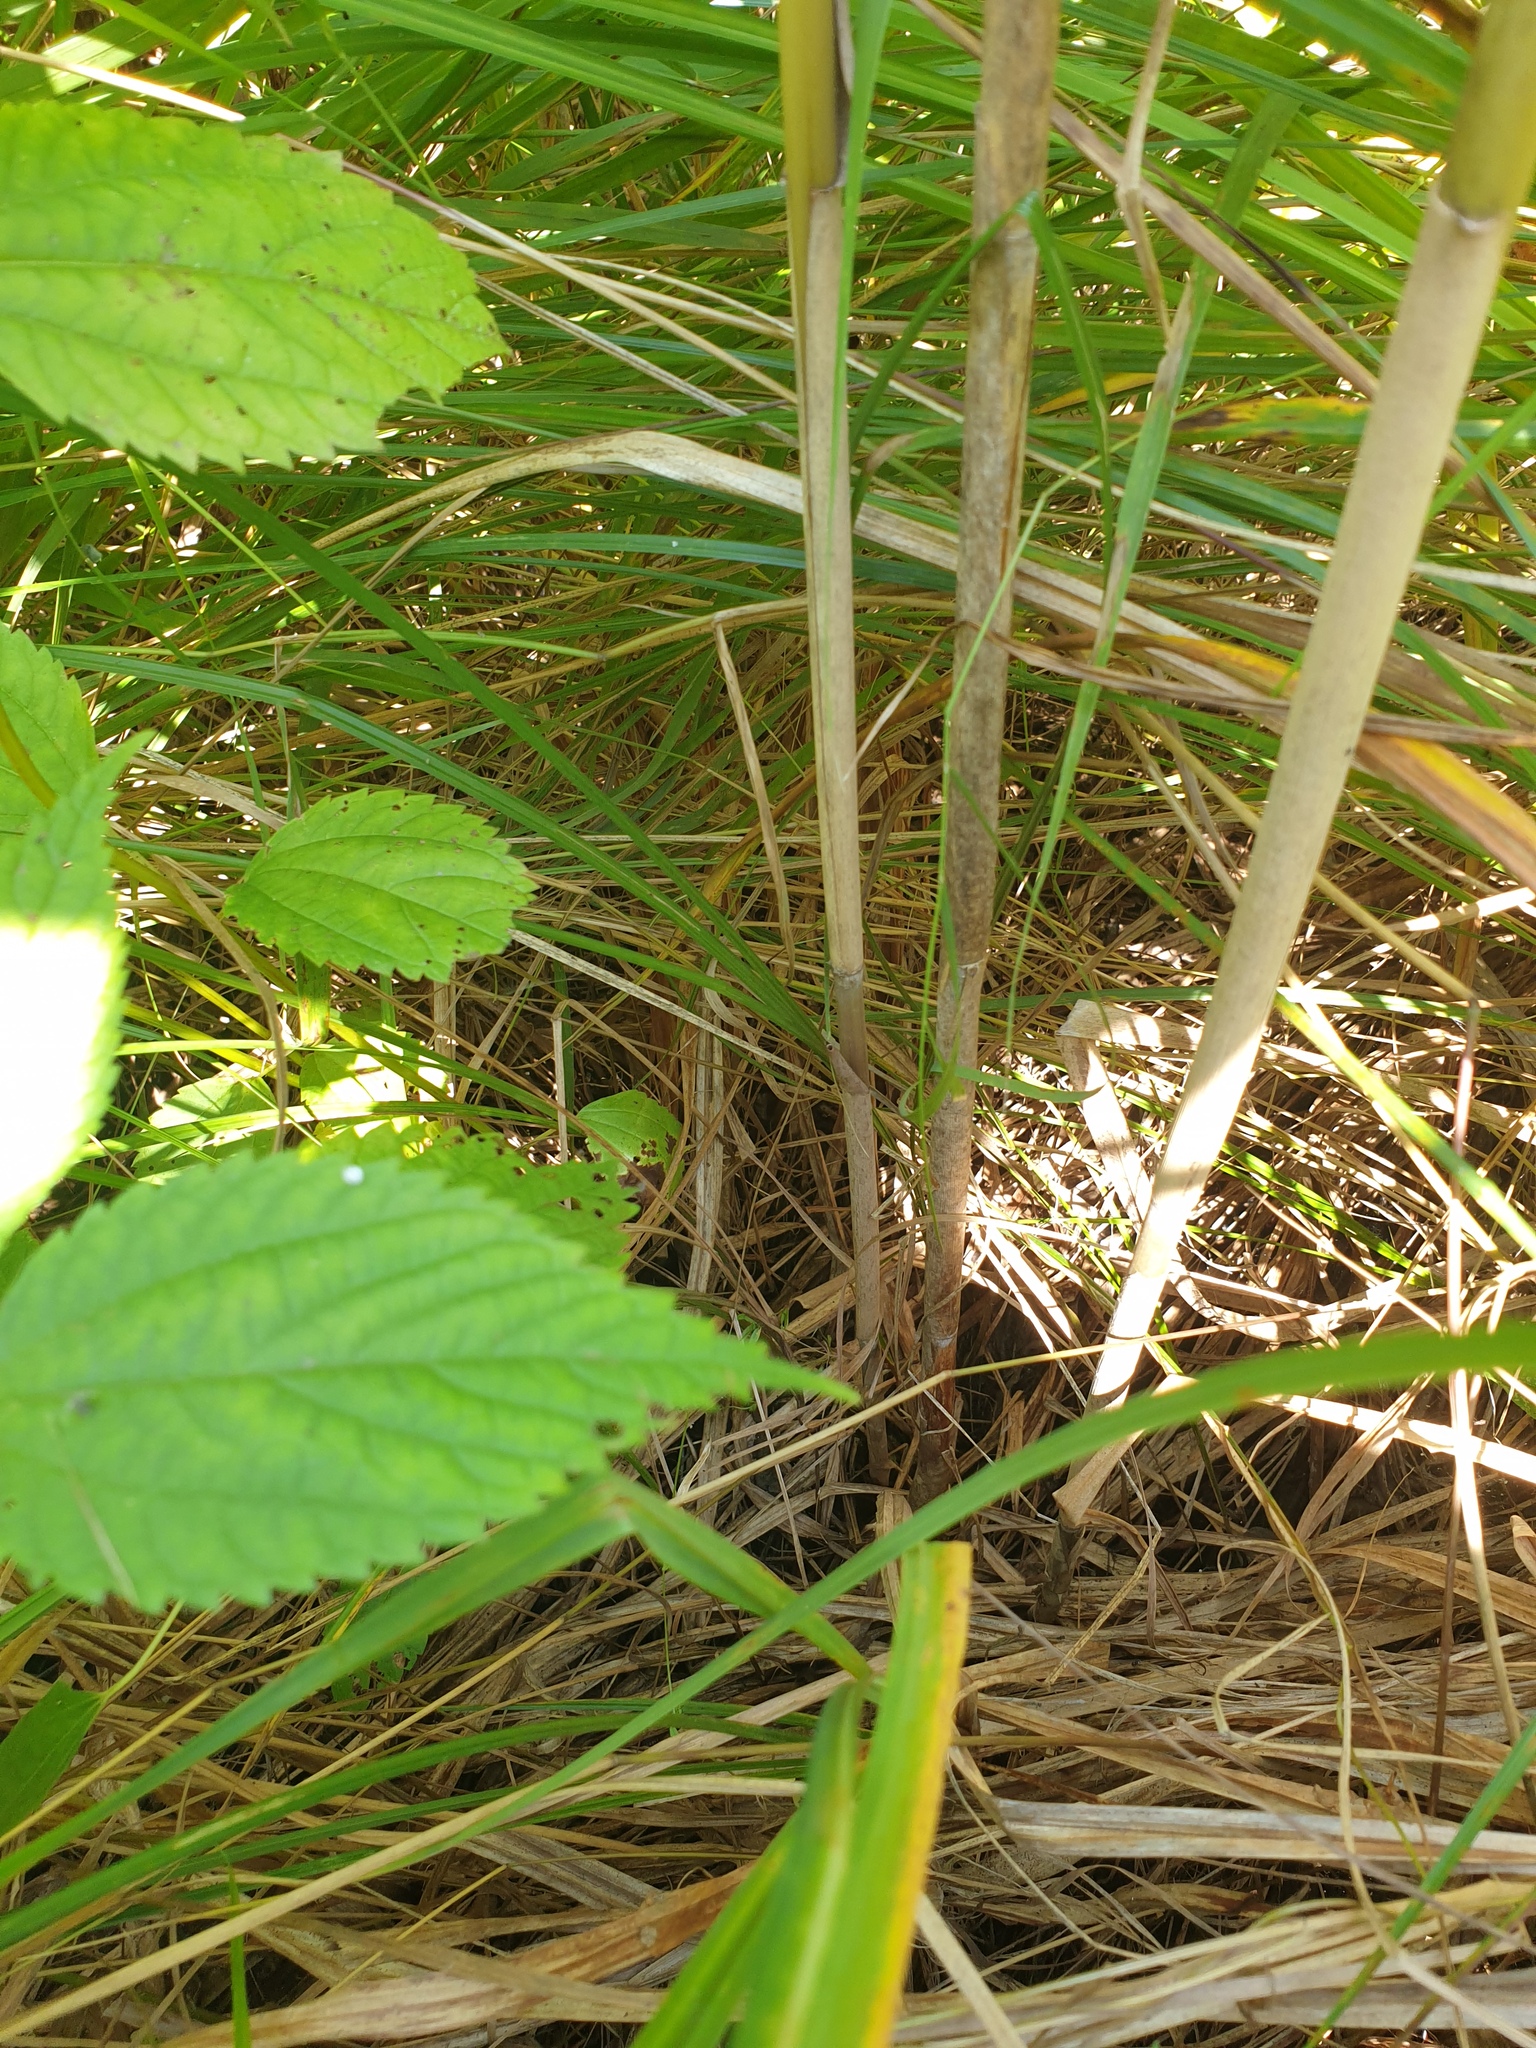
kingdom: Plantae
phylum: Tracheophyta
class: Liliopsida
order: Poales
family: Poaceae
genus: Phragmites
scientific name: Phragmites australis
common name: Common reed
